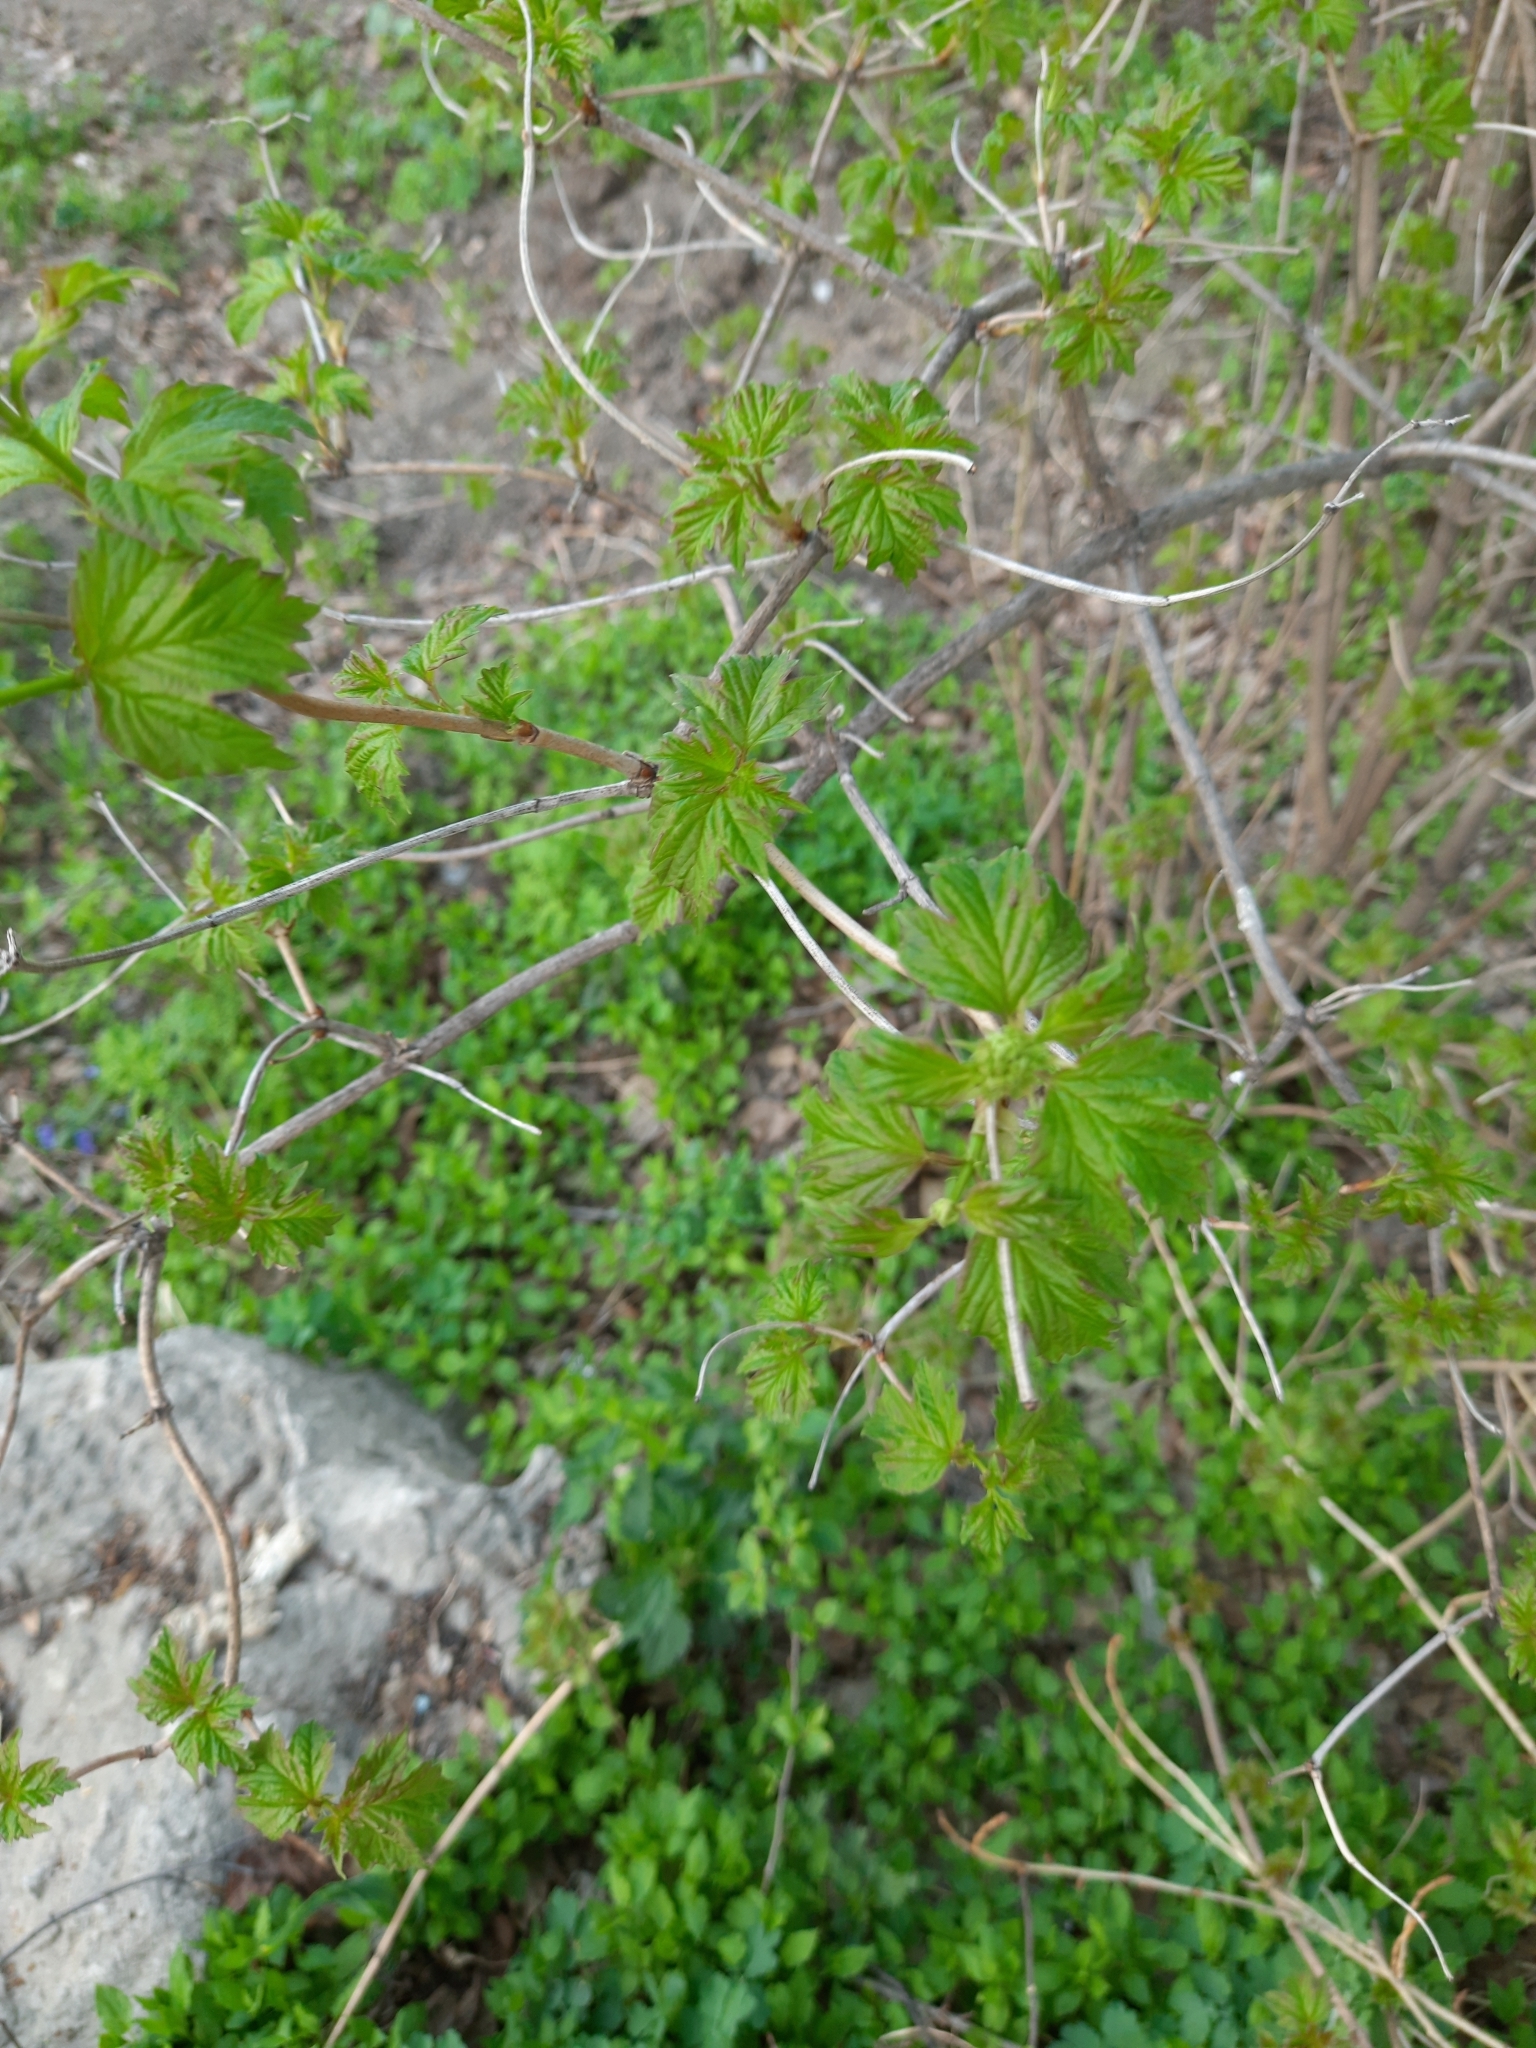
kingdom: Plantae
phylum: Tracheophyta
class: Magnoliopsida
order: Dipsacales
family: Viburnaceae
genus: Viburnum
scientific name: Viburnum opulus
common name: Guelder-rose
